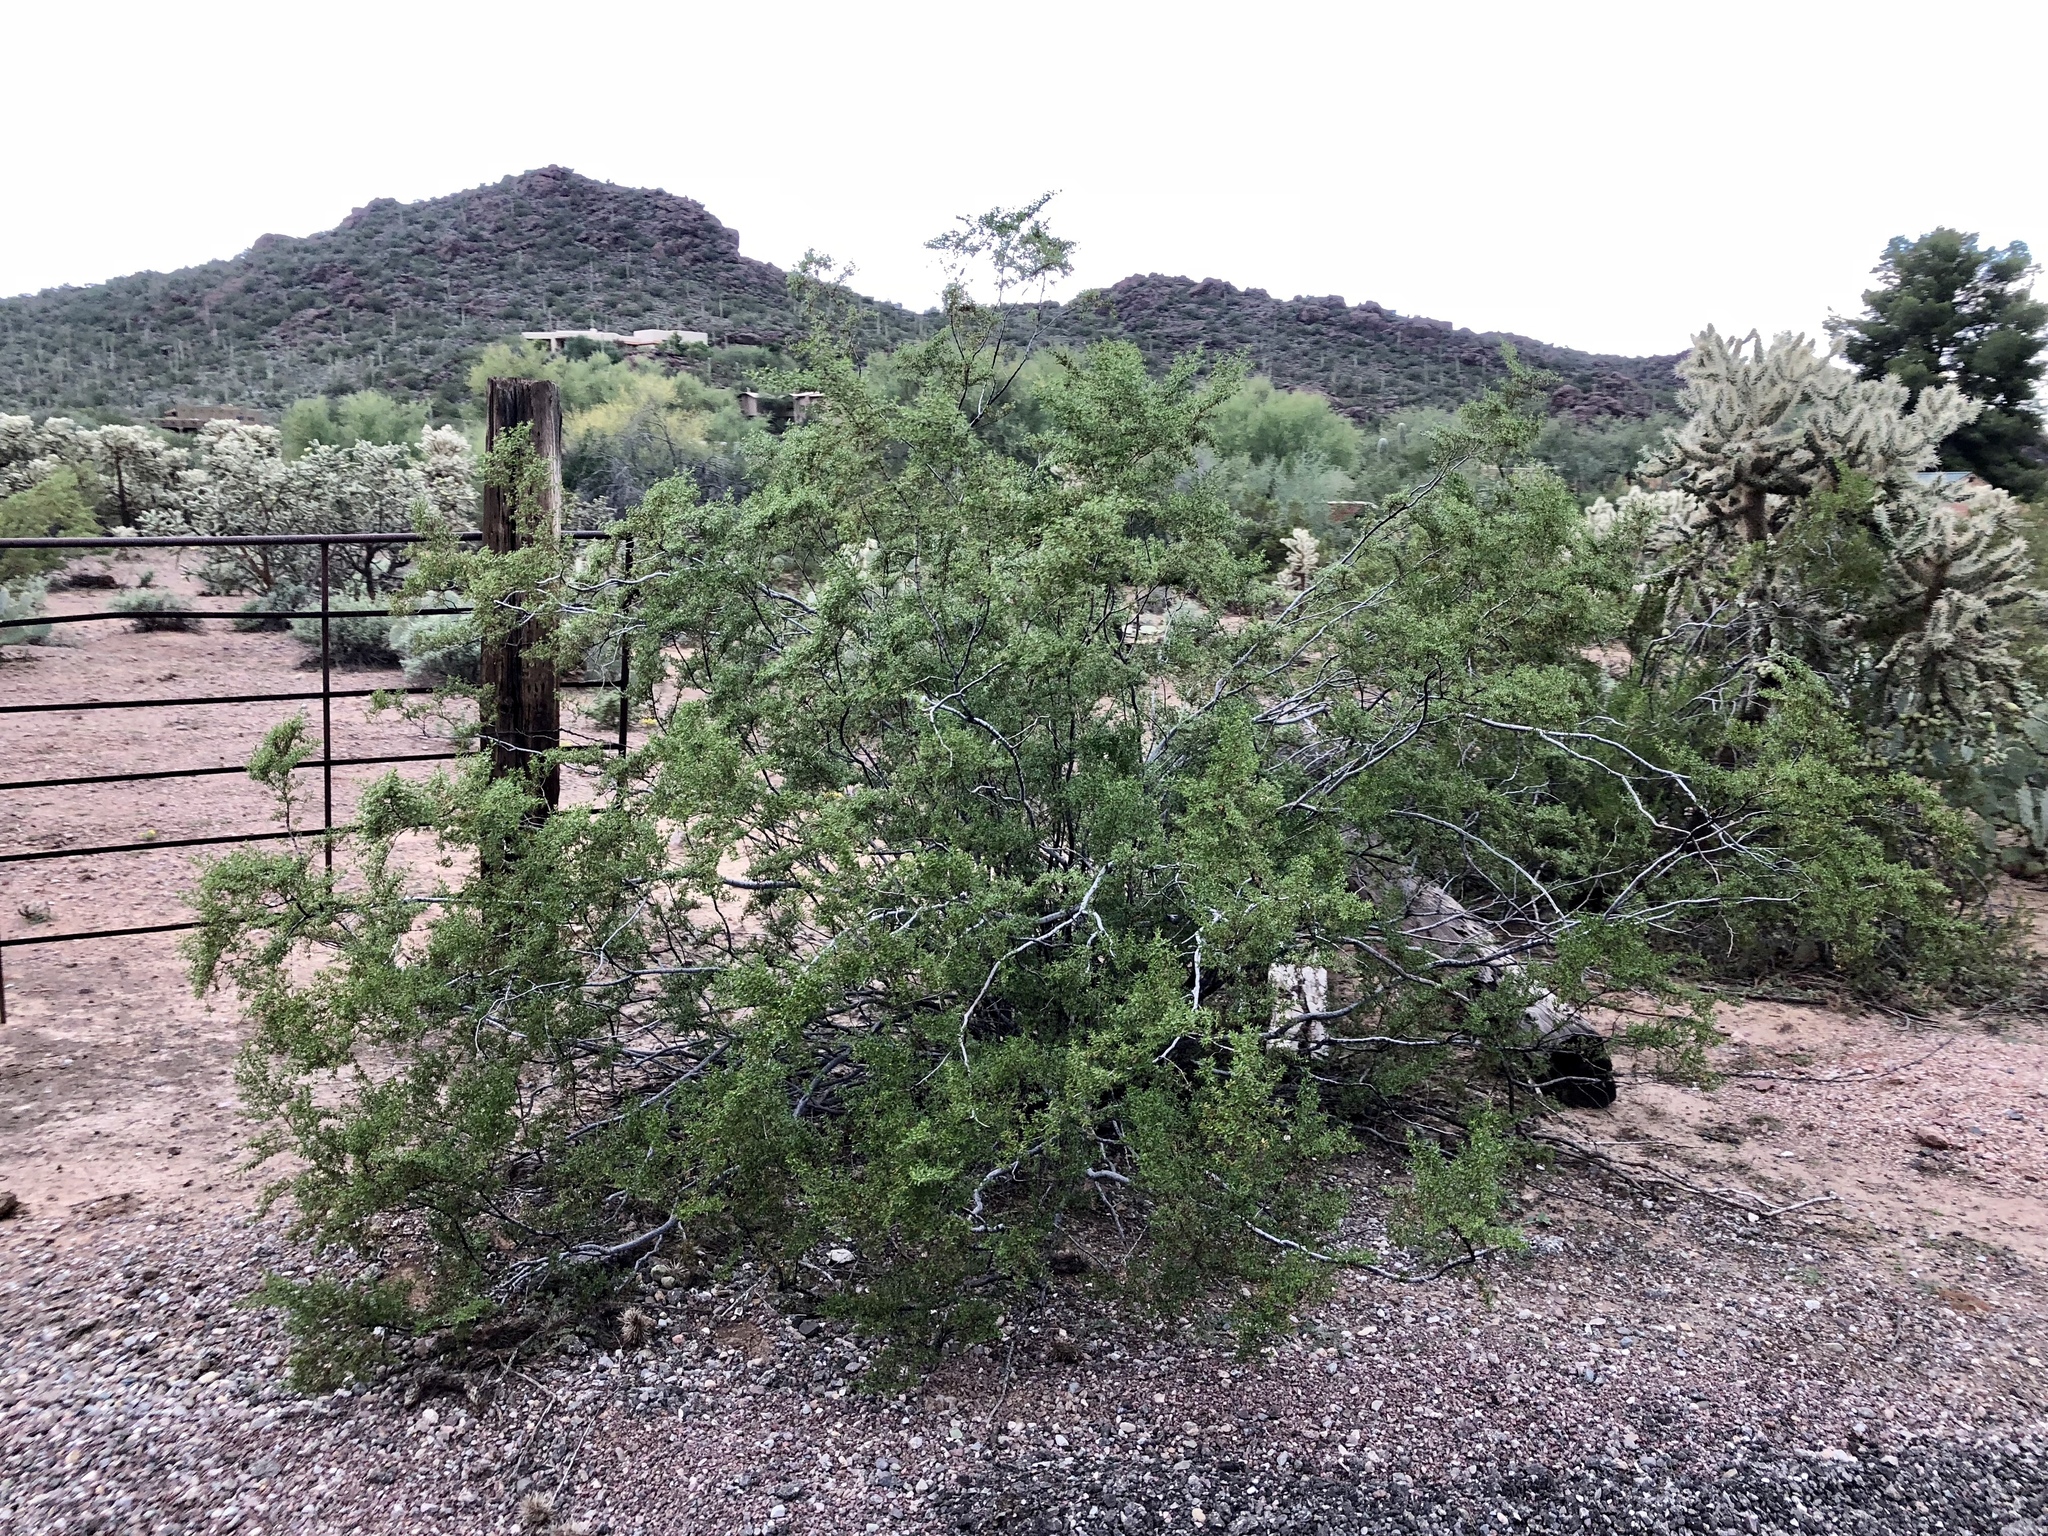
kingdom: Plantae
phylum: Tracheophyta
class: Magnoliopsida
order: Zygophyllales
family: Zygophyllaceae
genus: Larrea
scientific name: Larrea tridentata
